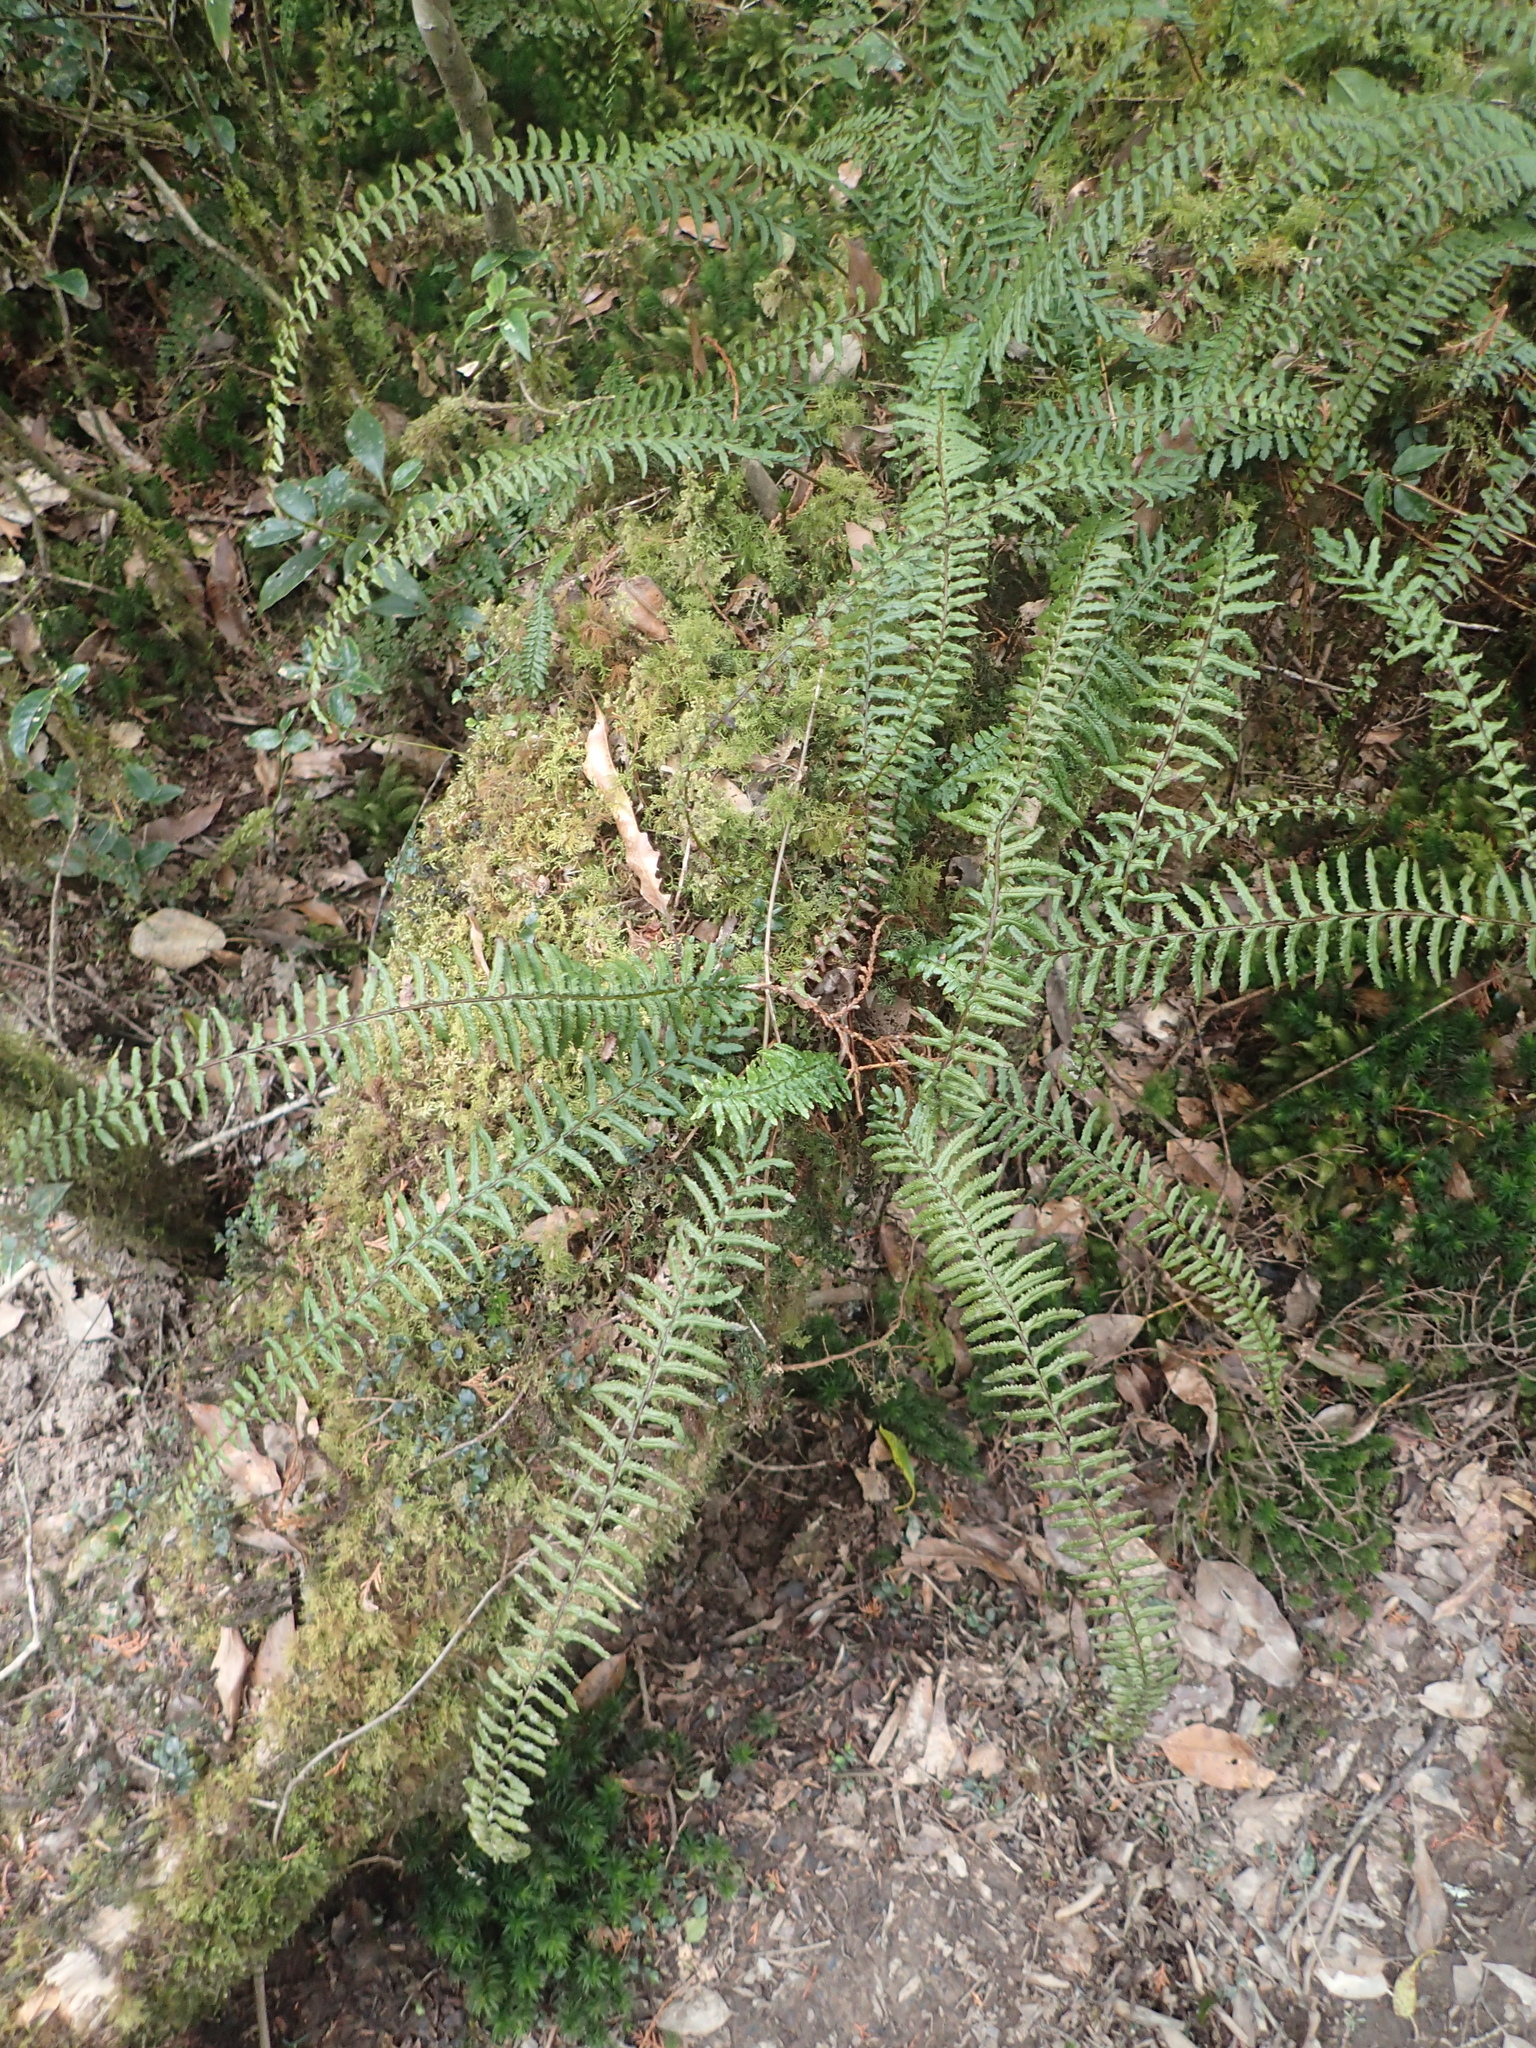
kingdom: Plantae
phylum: Tracheophyta
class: Polypodiopsida
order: Polypodiales
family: Dennstaedtiaceae
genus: Monachosorum
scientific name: Monachosorum maximowiczii
